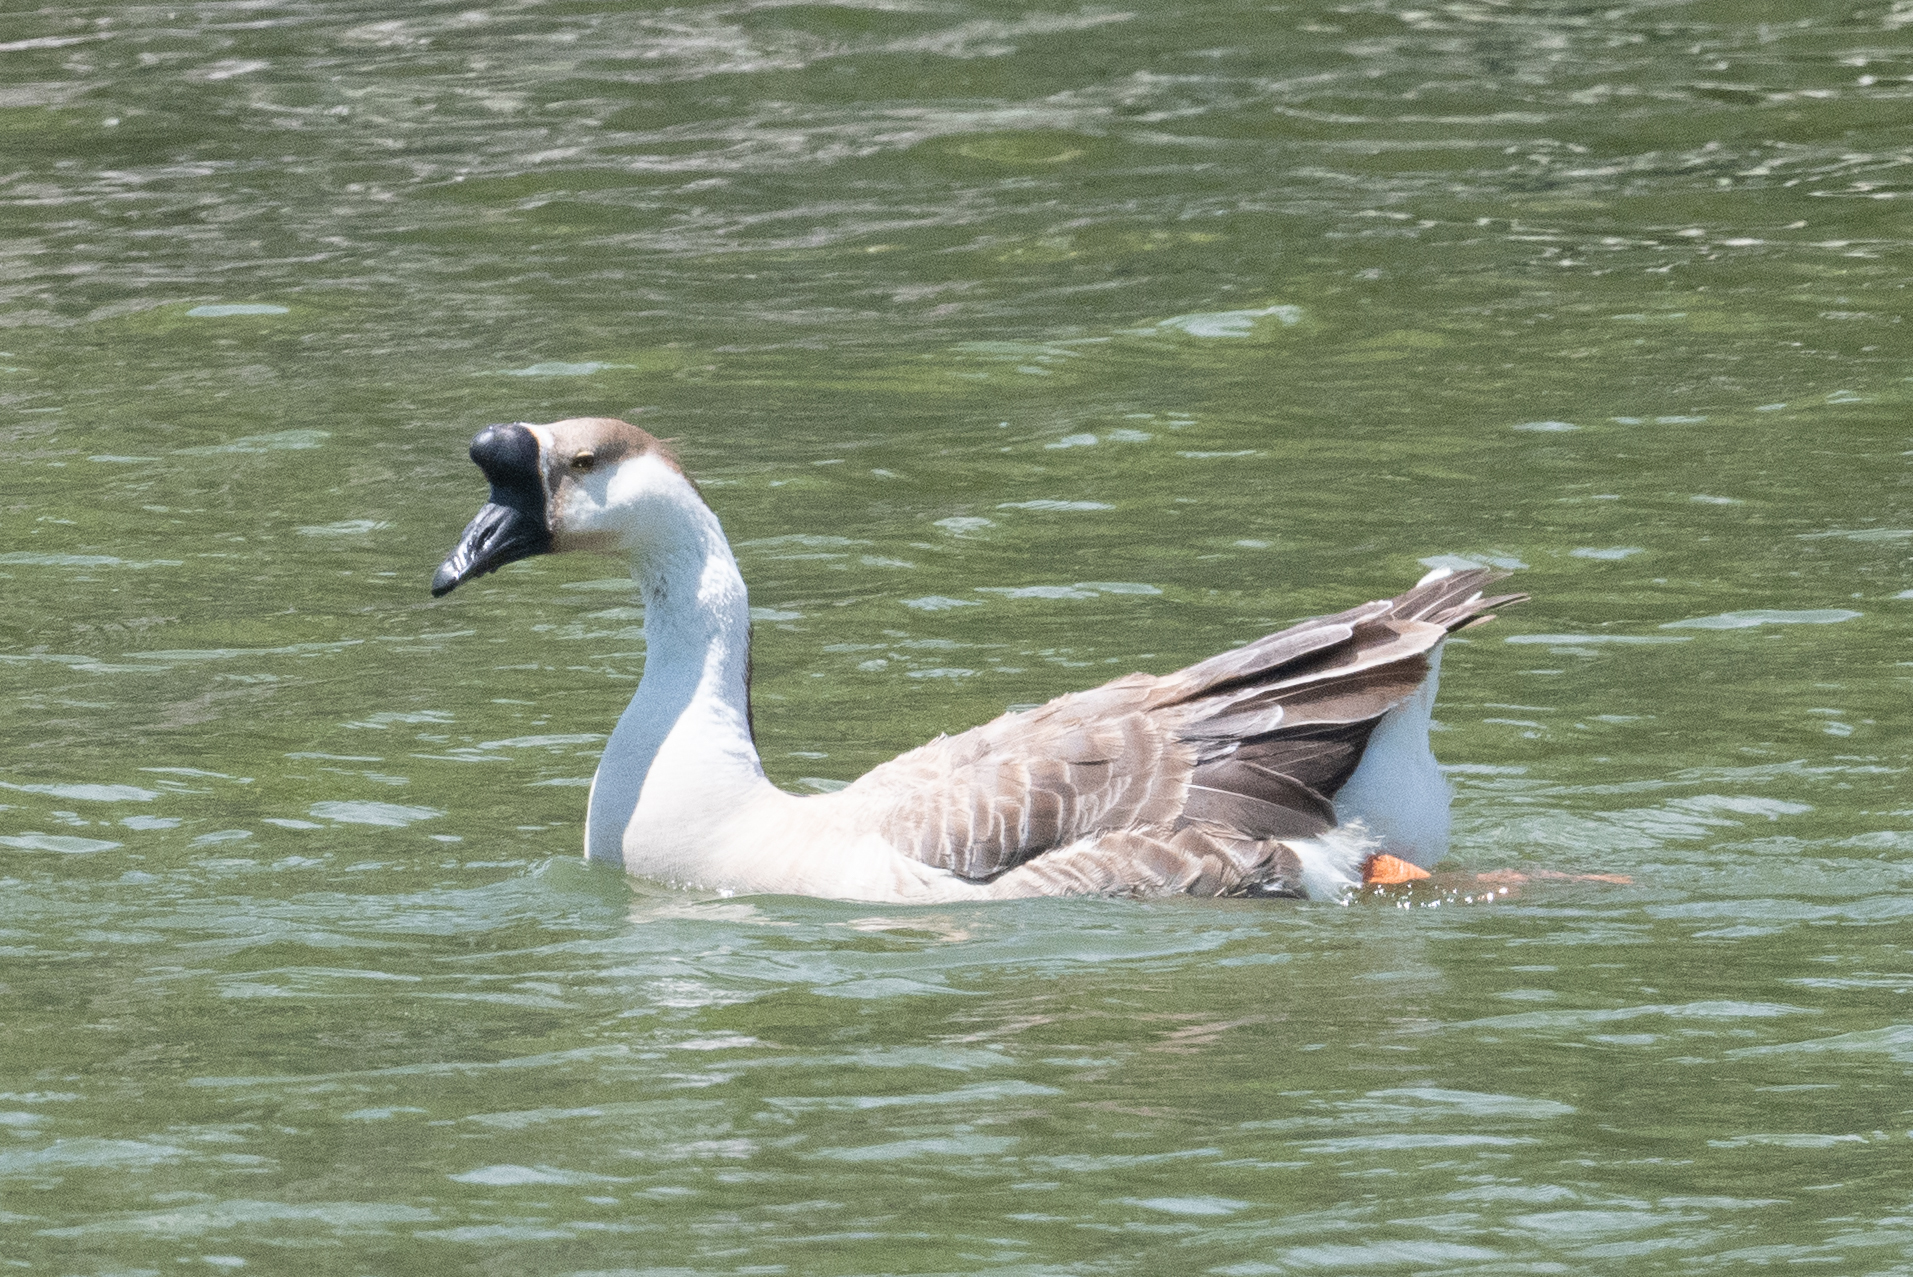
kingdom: Animalia
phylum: Chordata
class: Aves
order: Anseriformes
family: Anatidae
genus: Anser
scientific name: Anser cygnoides
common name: Swan goose
